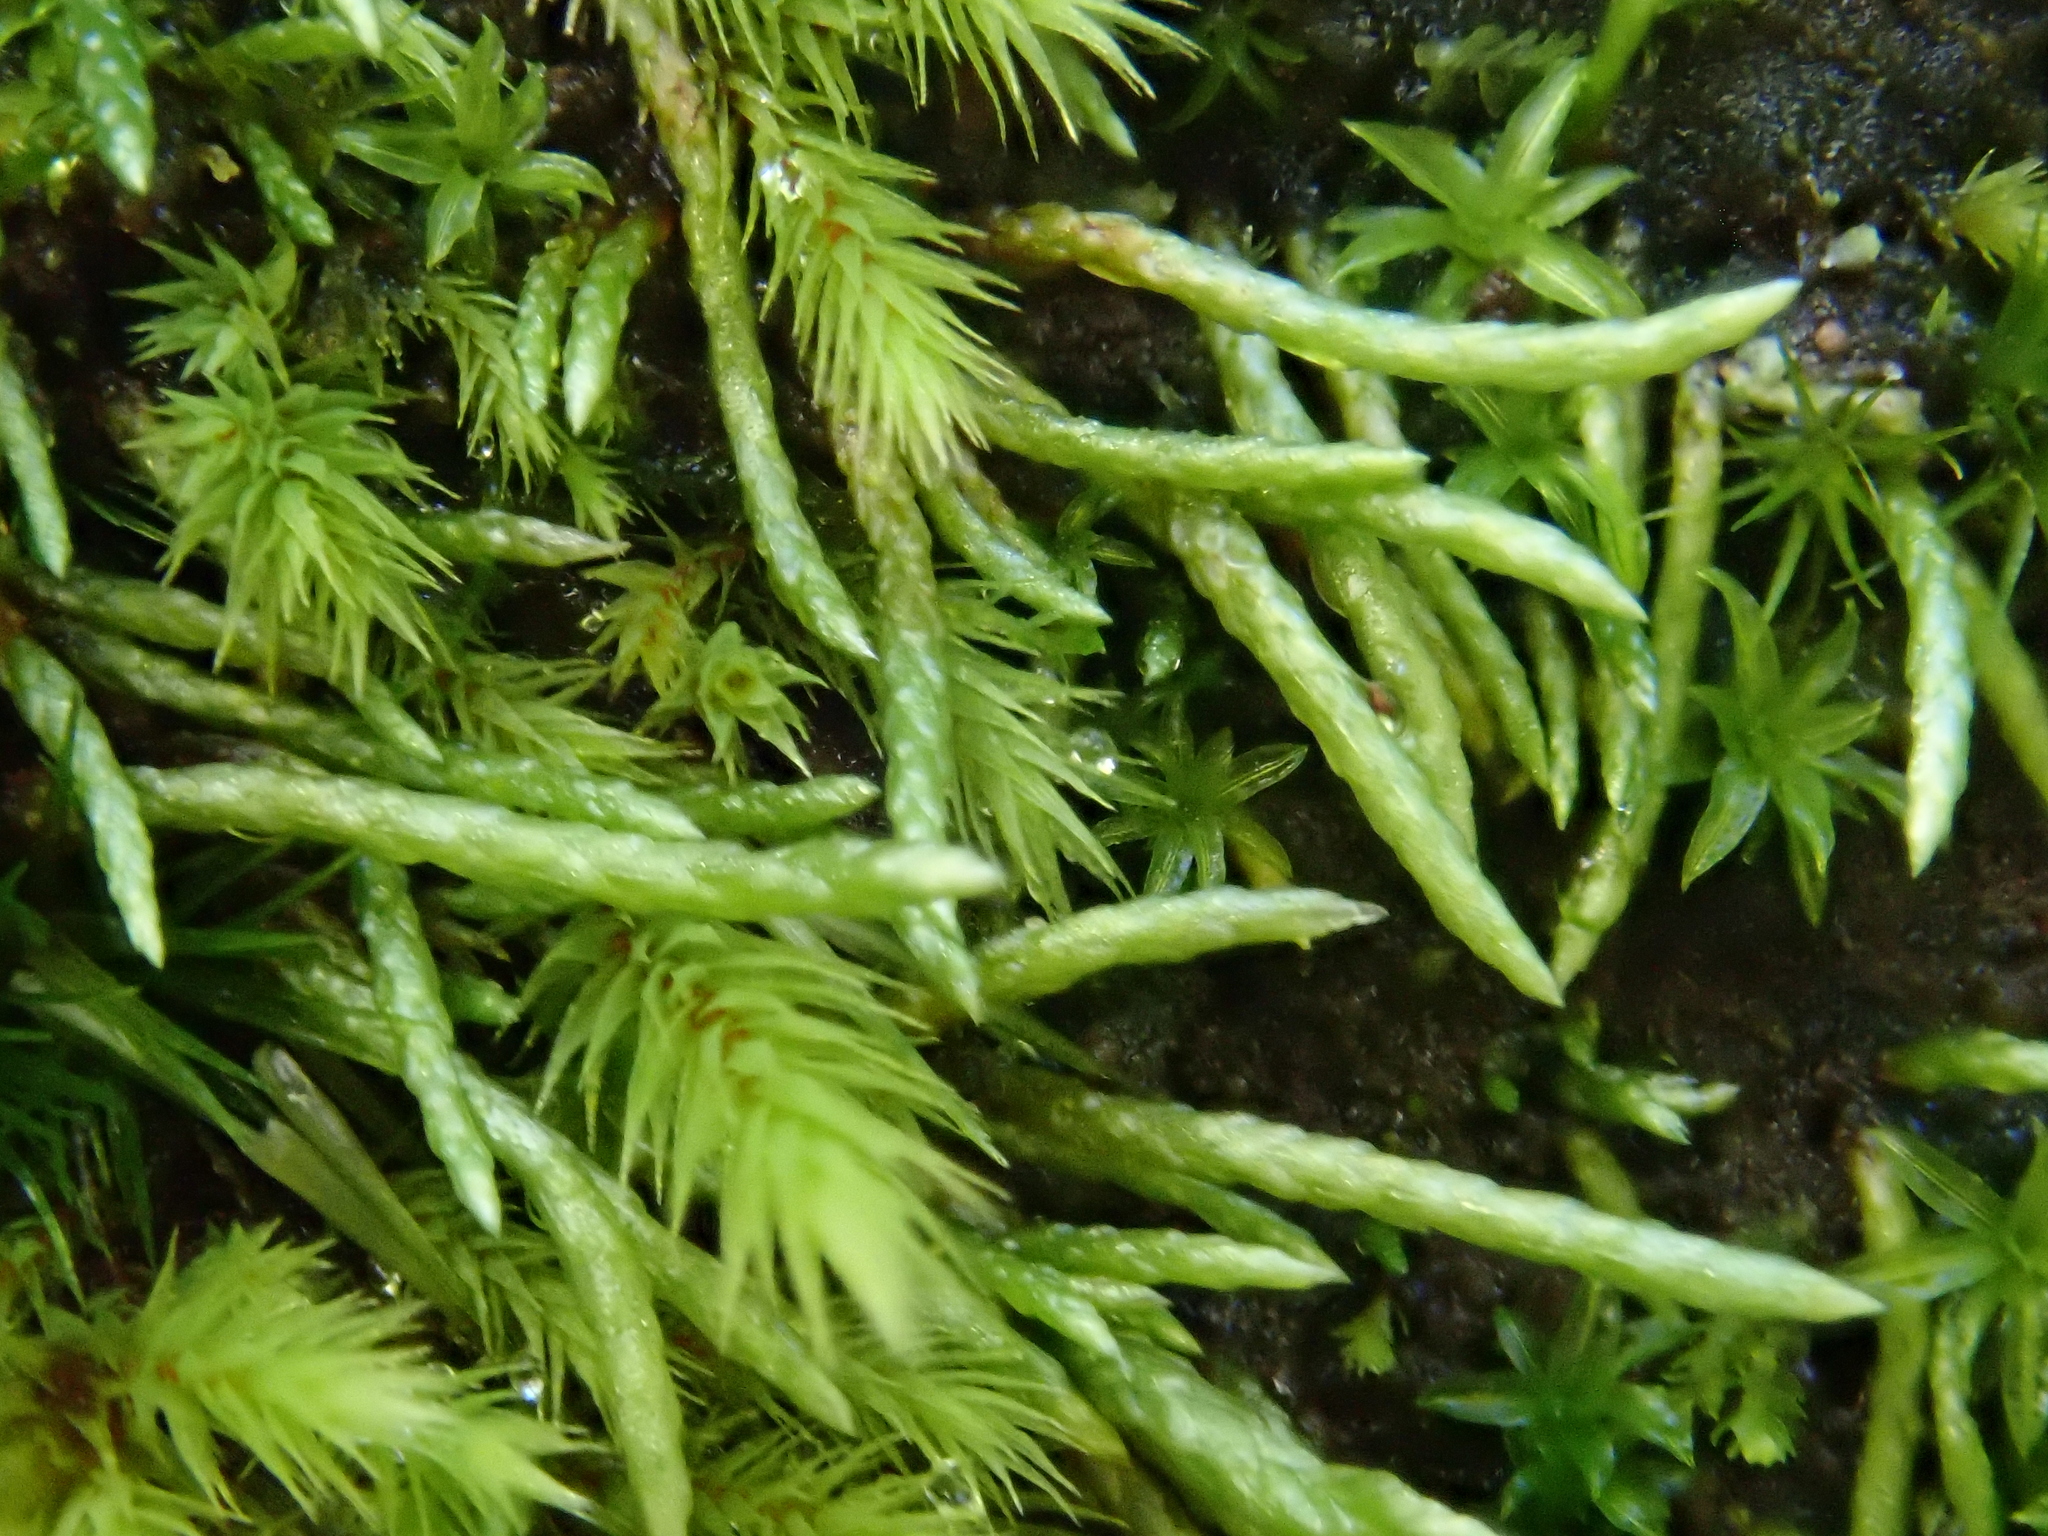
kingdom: Plantae
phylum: Bryophyta
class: Bryopsida
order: Bryales
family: Bryaceae
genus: Anomobryum
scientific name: Anomobryum julaceum
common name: Slender silver moss
